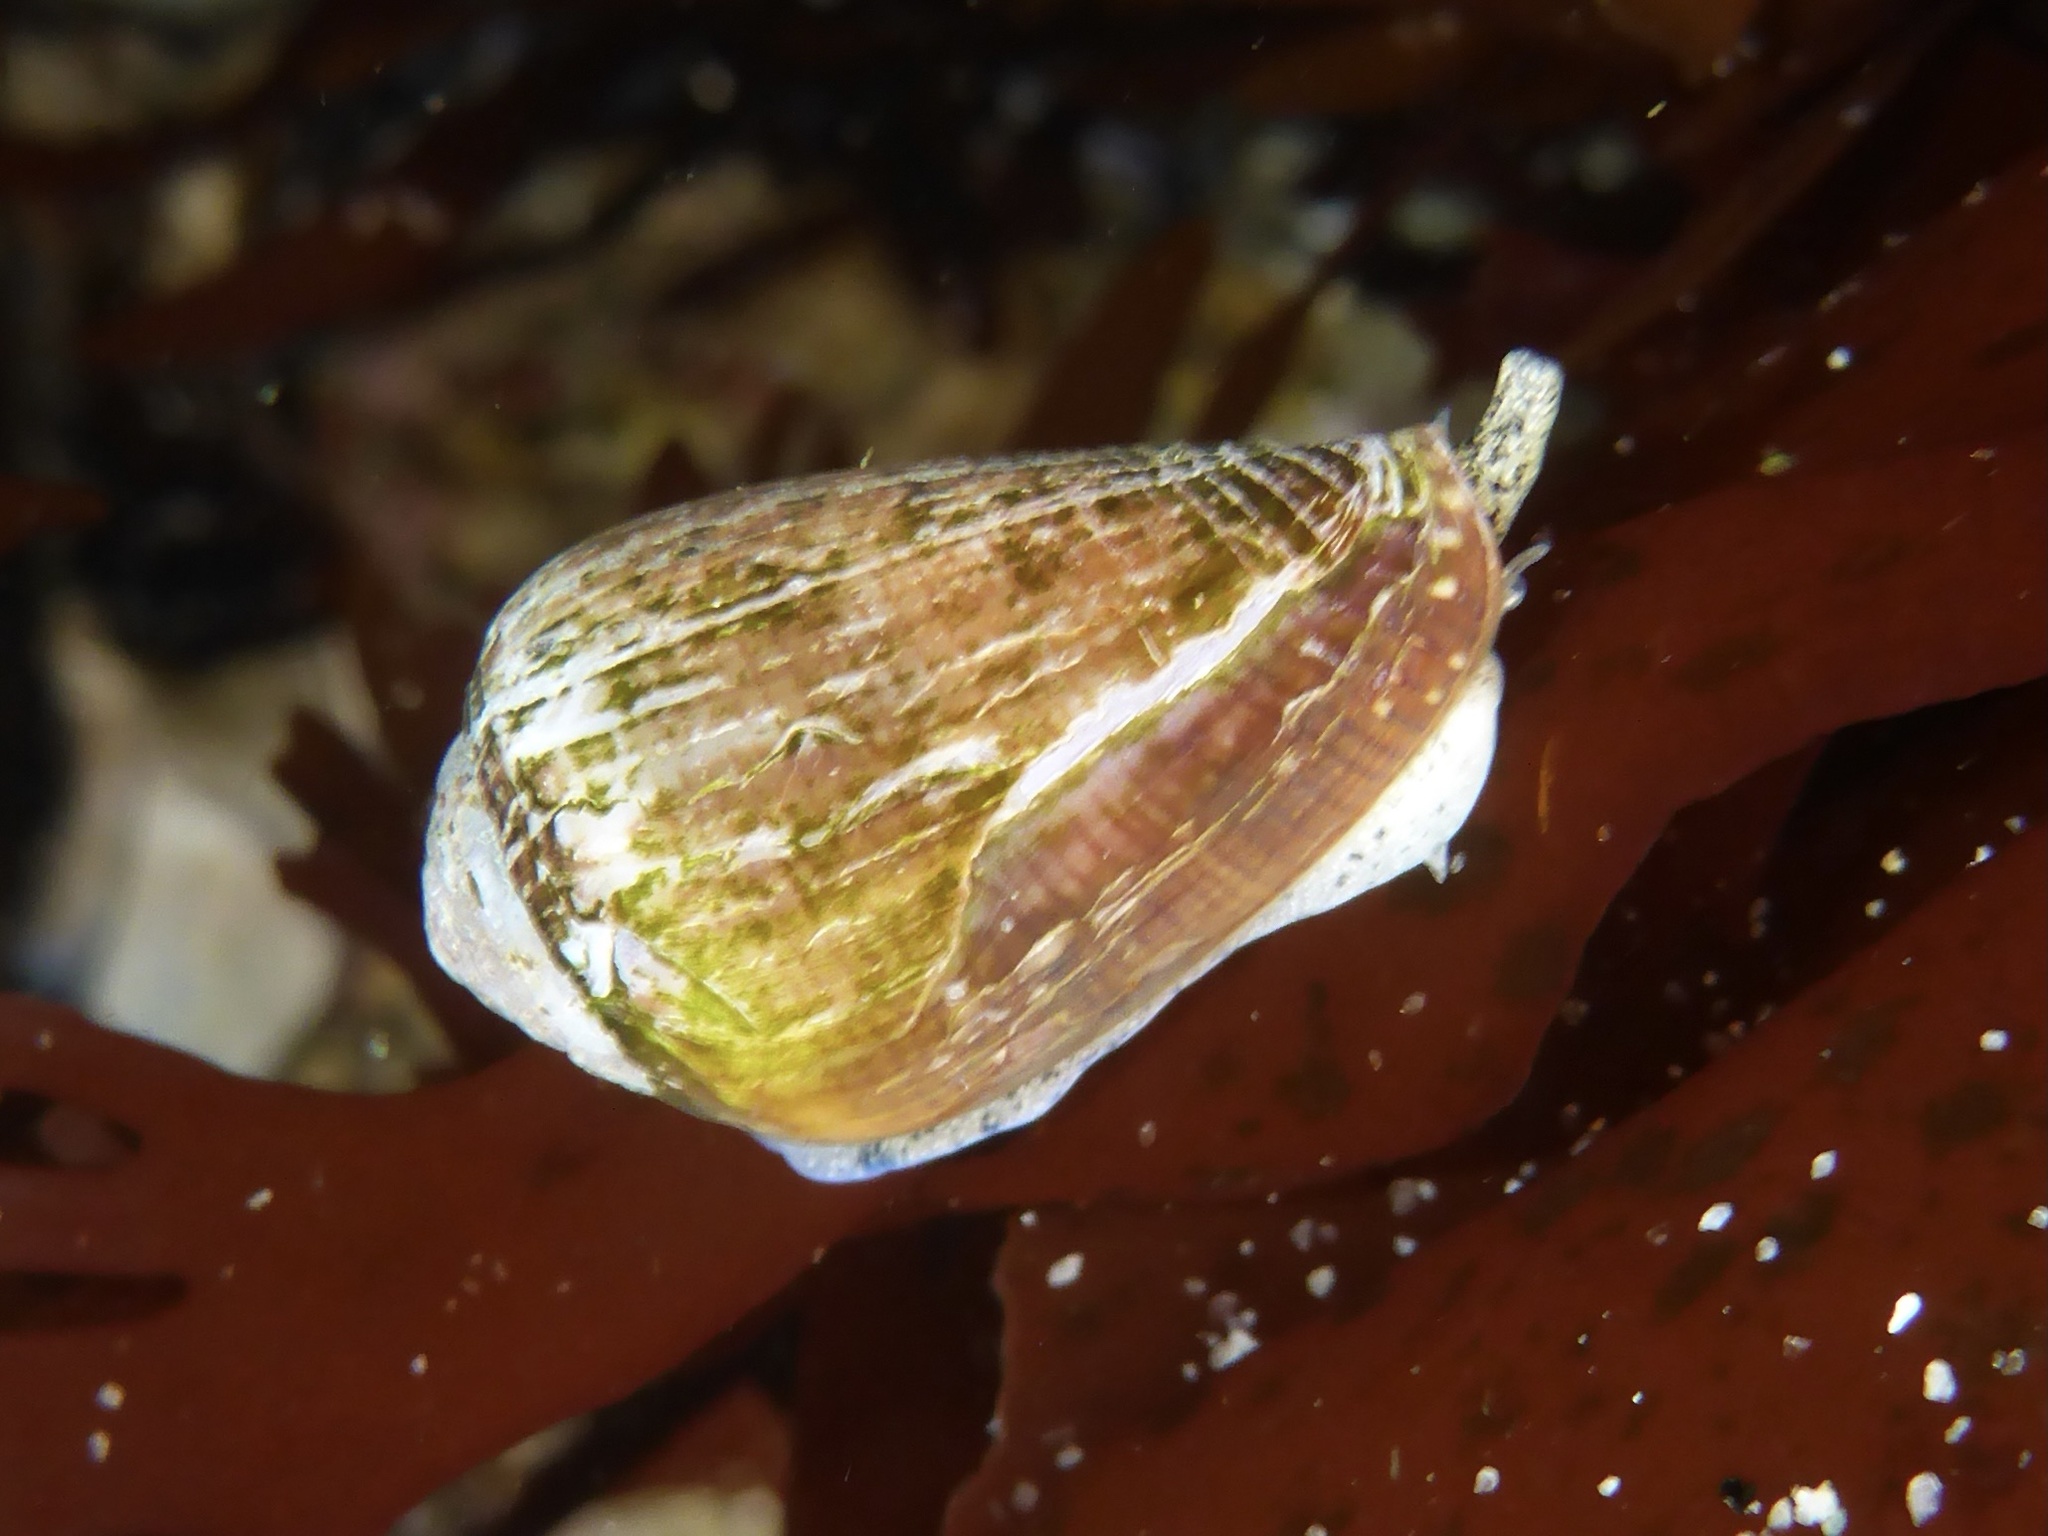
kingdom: Animalia
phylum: Mollusca
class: Gastropoda
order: Neogastropoda
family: Conidae
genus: Californiconus
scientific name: Californiconus californicus
